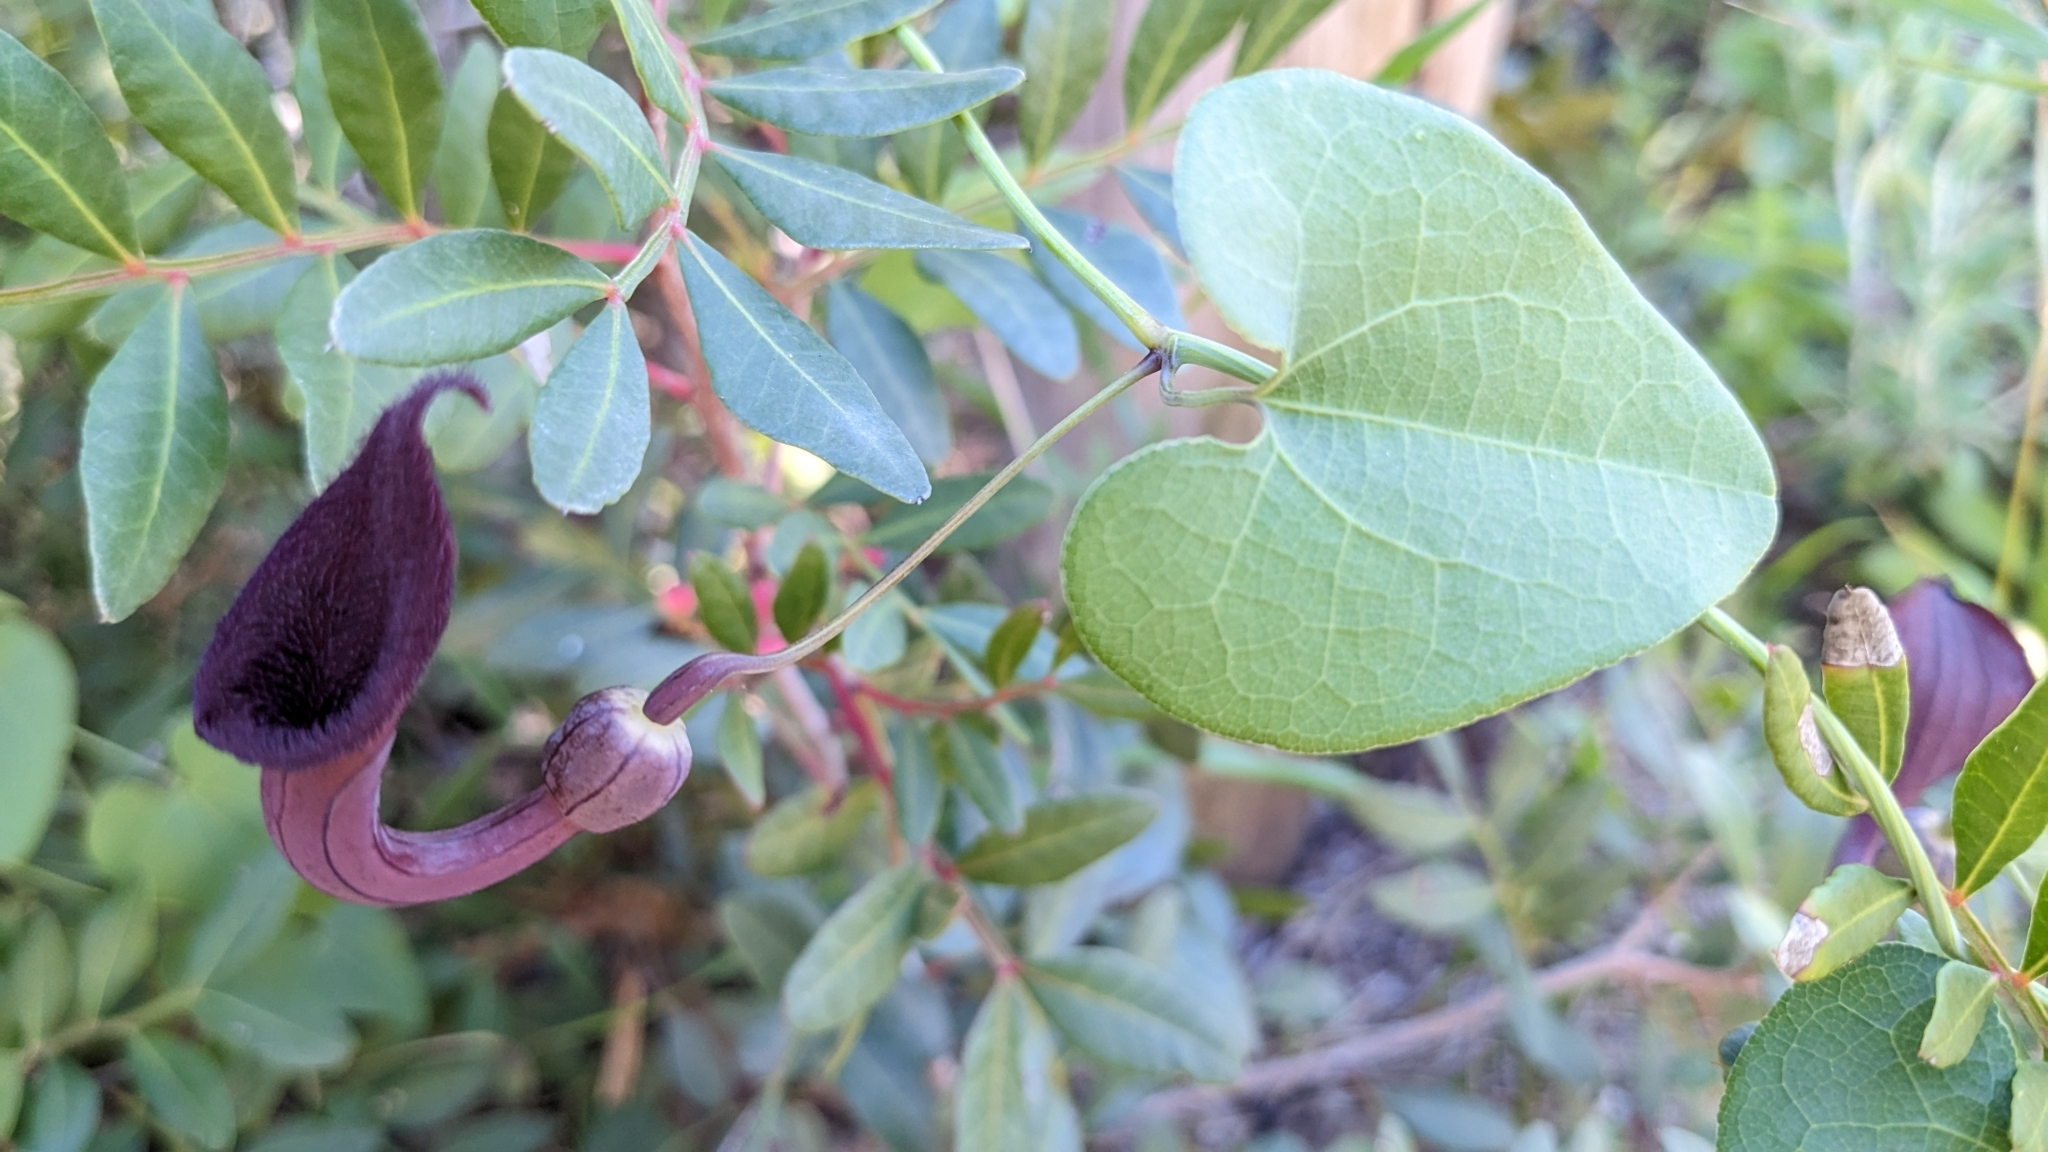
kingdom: Plantae
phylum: Tracheophyta
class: Magnoliopsida
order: Piperales
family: Aristolochiaceae
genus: Aristolochia
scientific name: Aristolochia baetica
